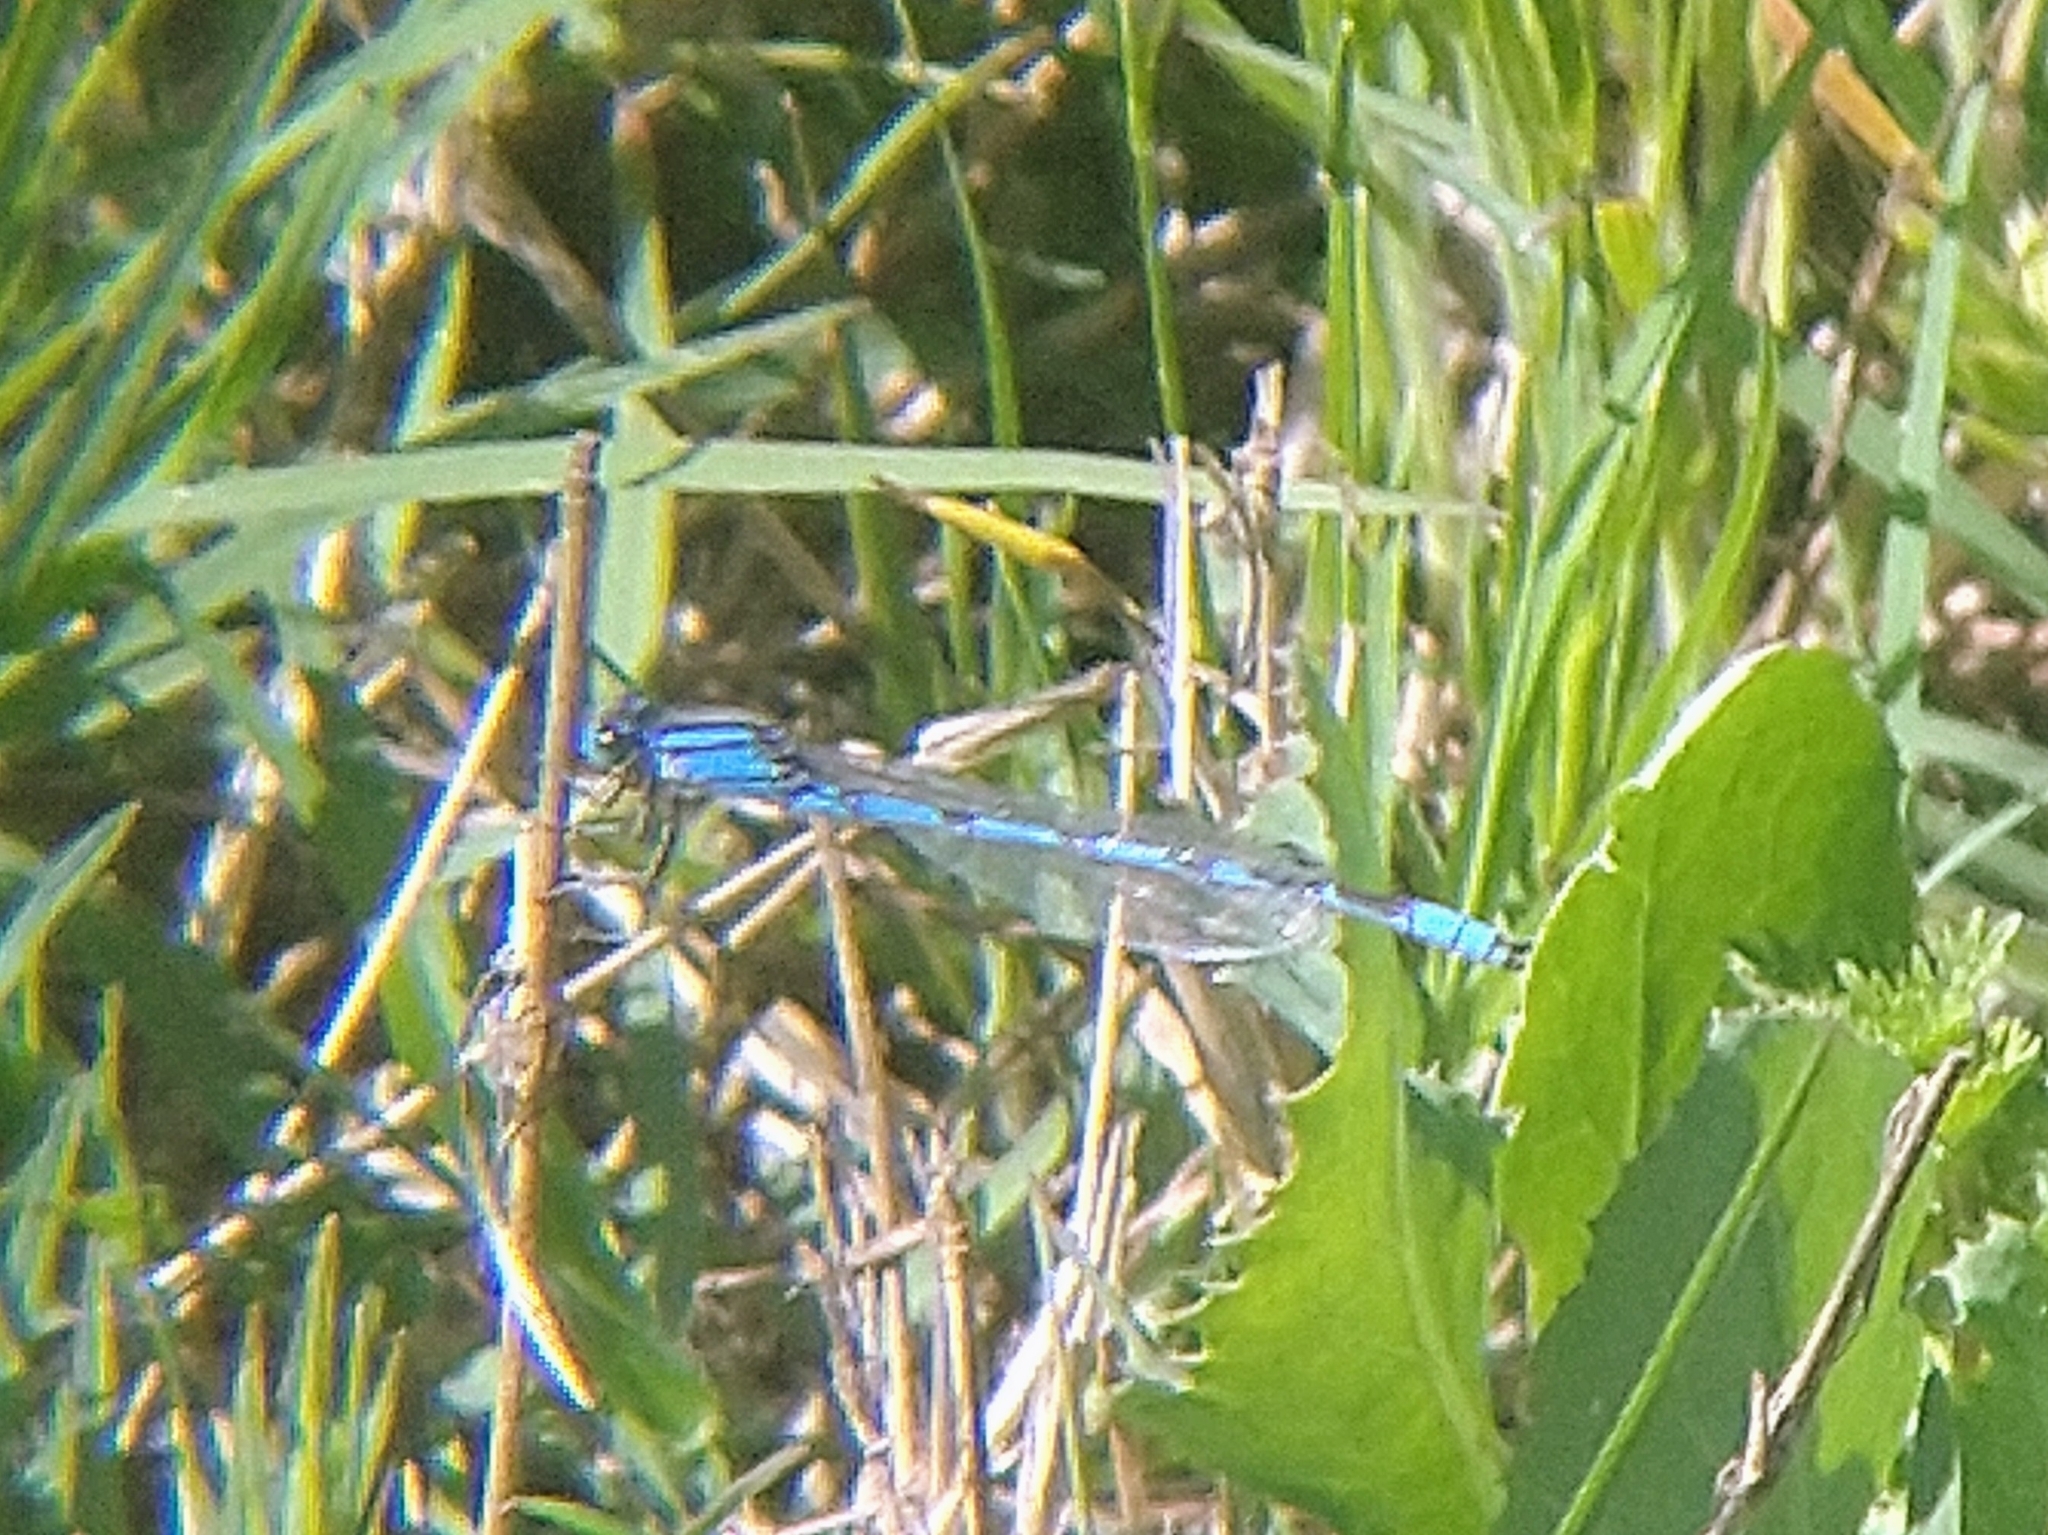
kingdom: Animalia
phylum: Arthropoda
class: Insecta
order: Odonata
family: Coenagrionidae
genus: Enallagma
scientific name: Enallagma civile
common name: Damselfly
